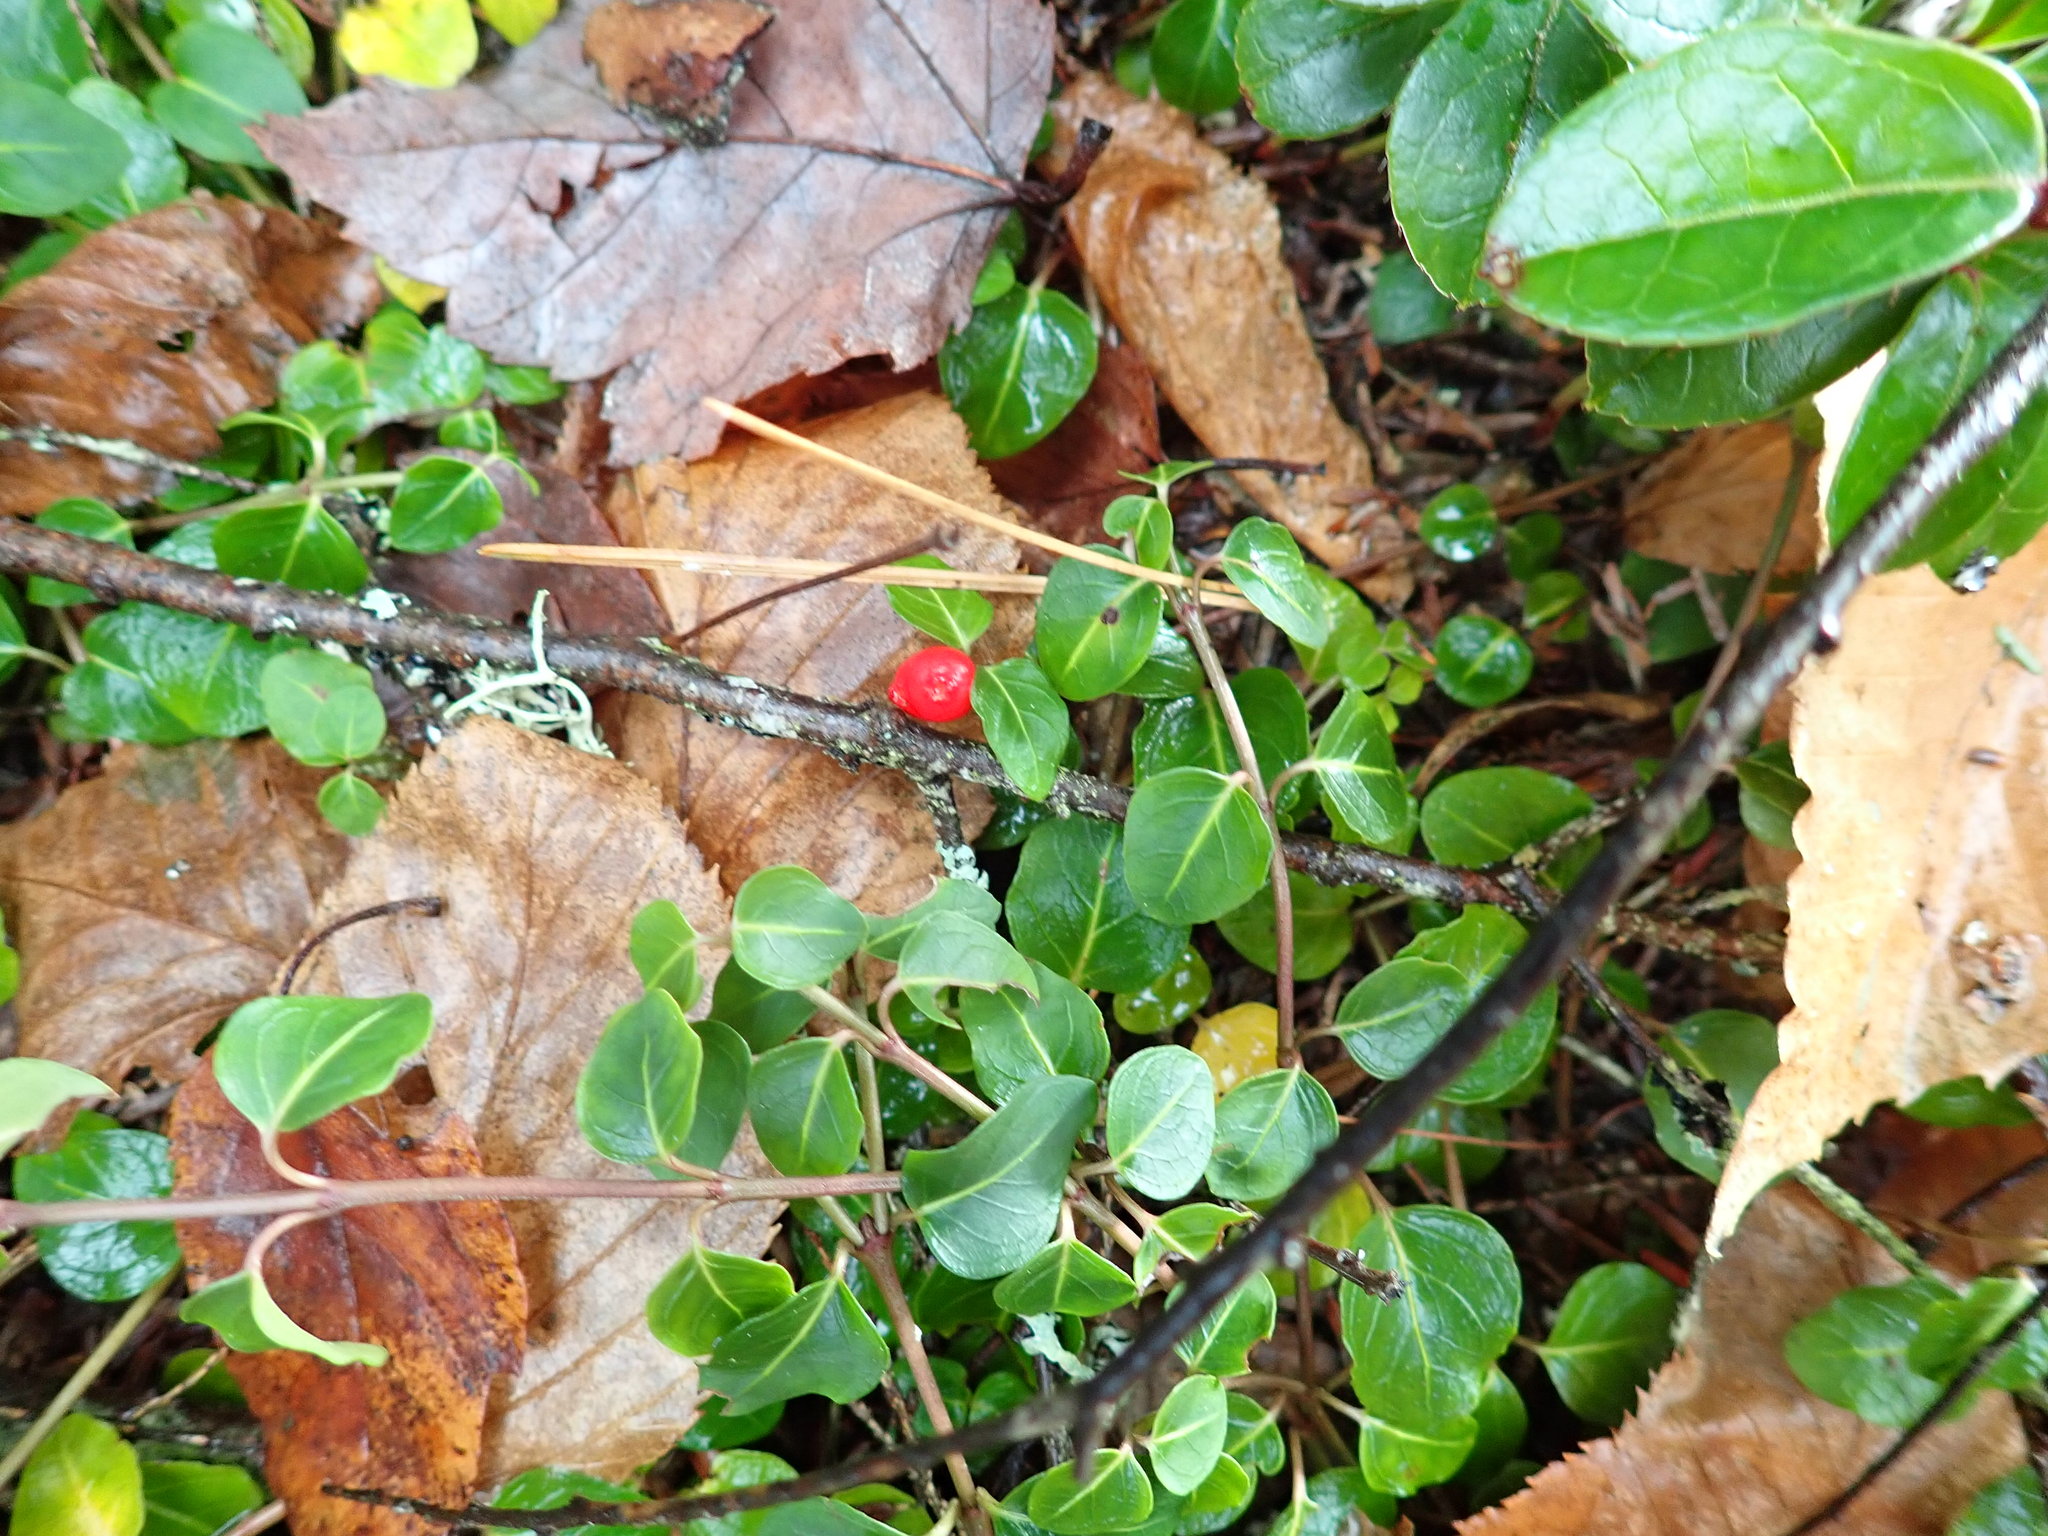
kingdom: Plantae
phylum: Tracheophyta
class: Magnoliopsida
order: Gentianales
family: Rubiaceae
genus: Mitchella
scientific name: Mitchella repens
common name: Partridge-berry
